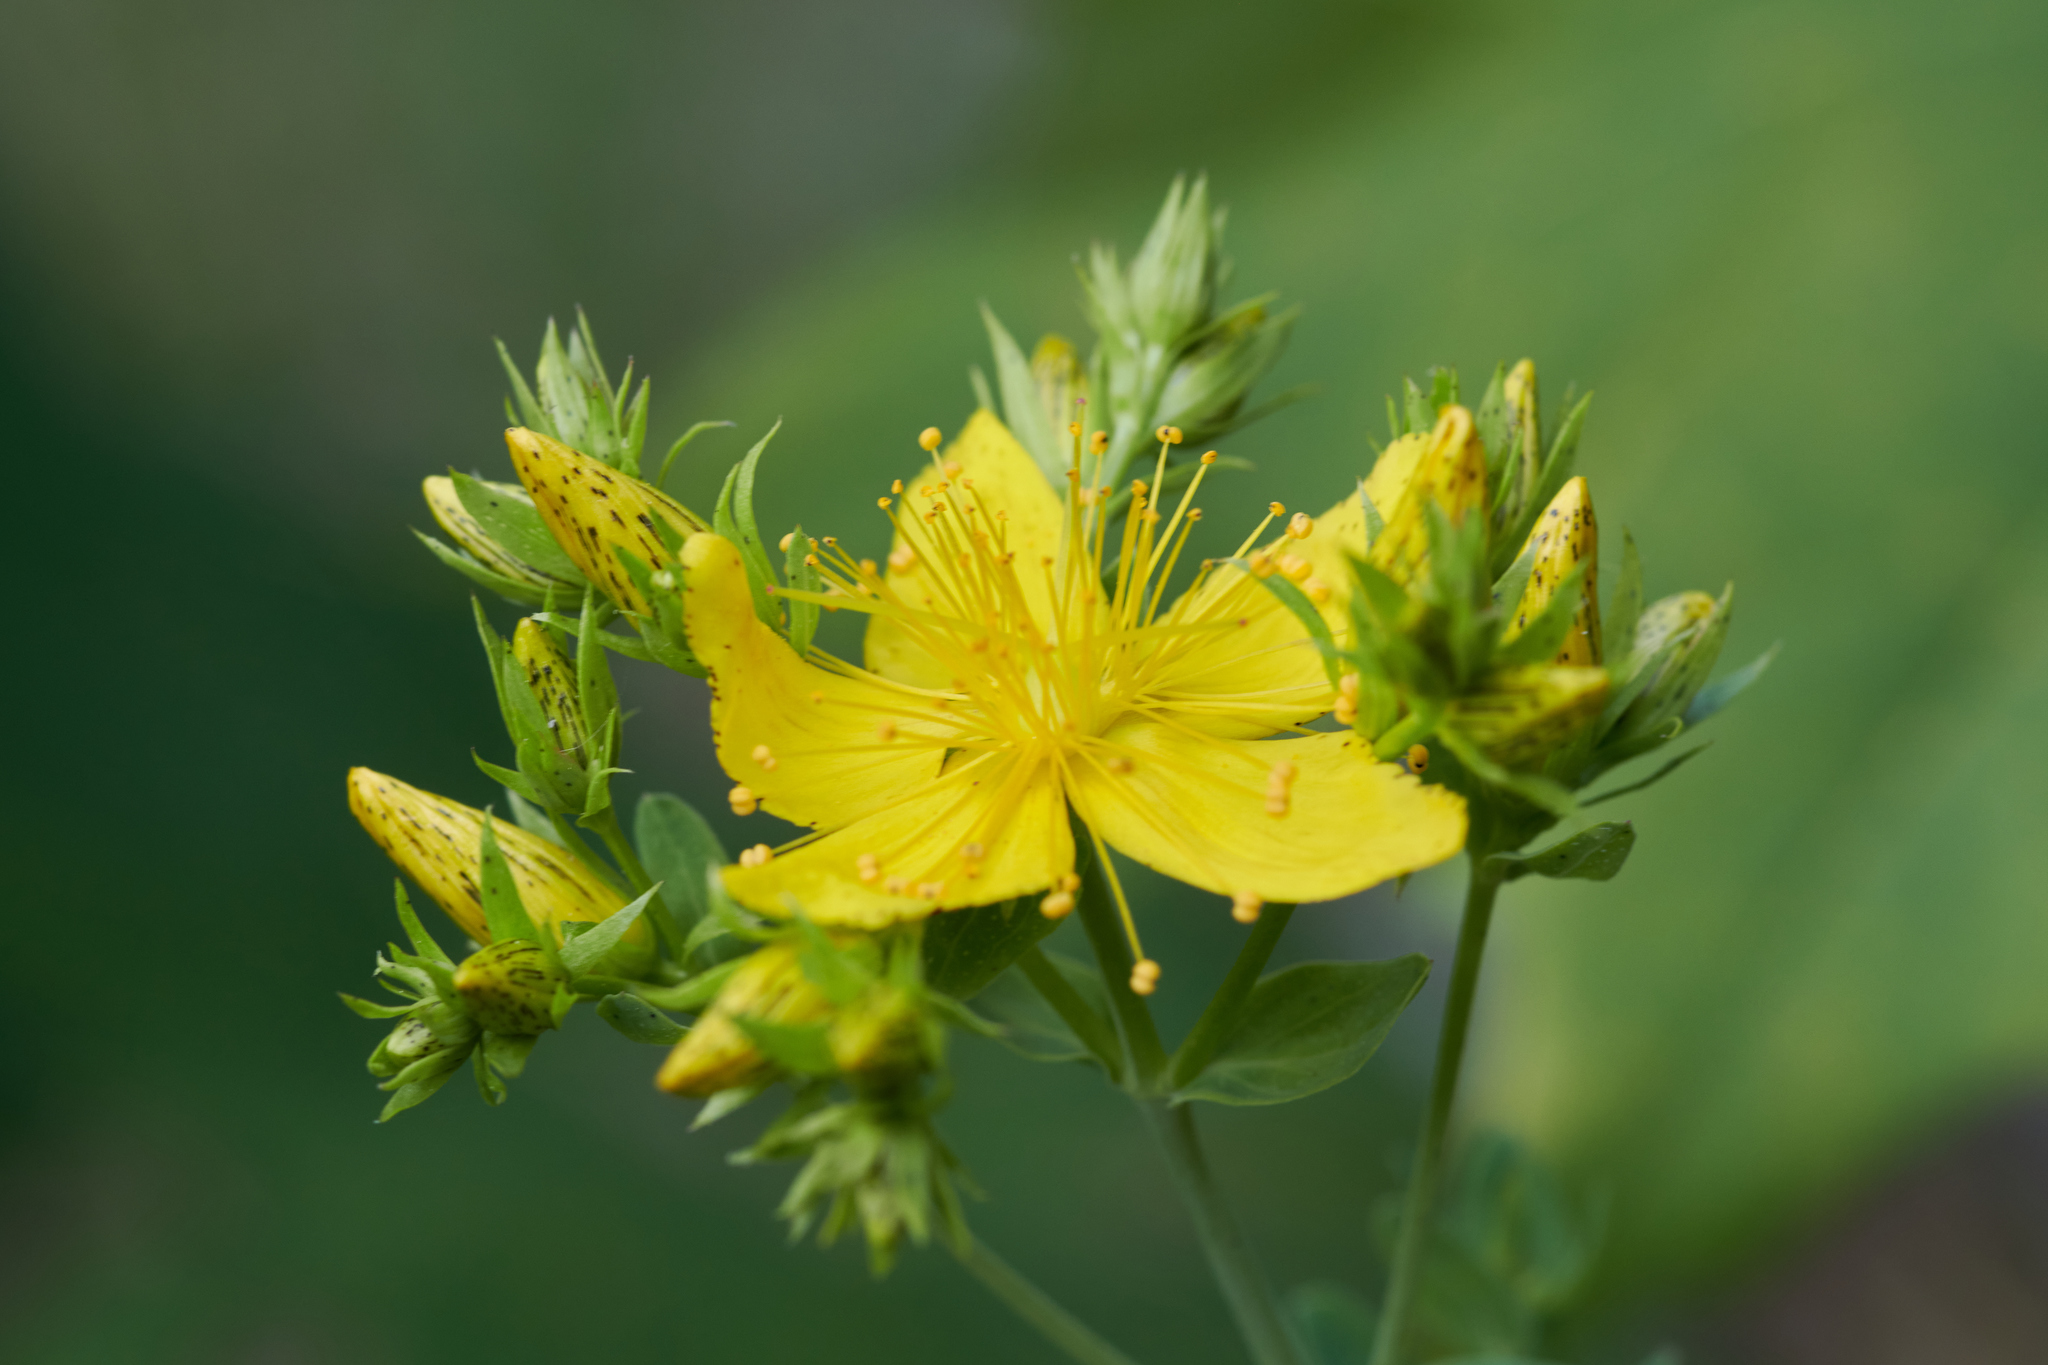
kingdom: Plantae
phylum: Tracheophyta
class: Magnoliopsida
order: Malpighiales
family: Hypericaceae
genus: Hypericum
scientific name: Hypericum perforatum
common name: Common st. johnswort
